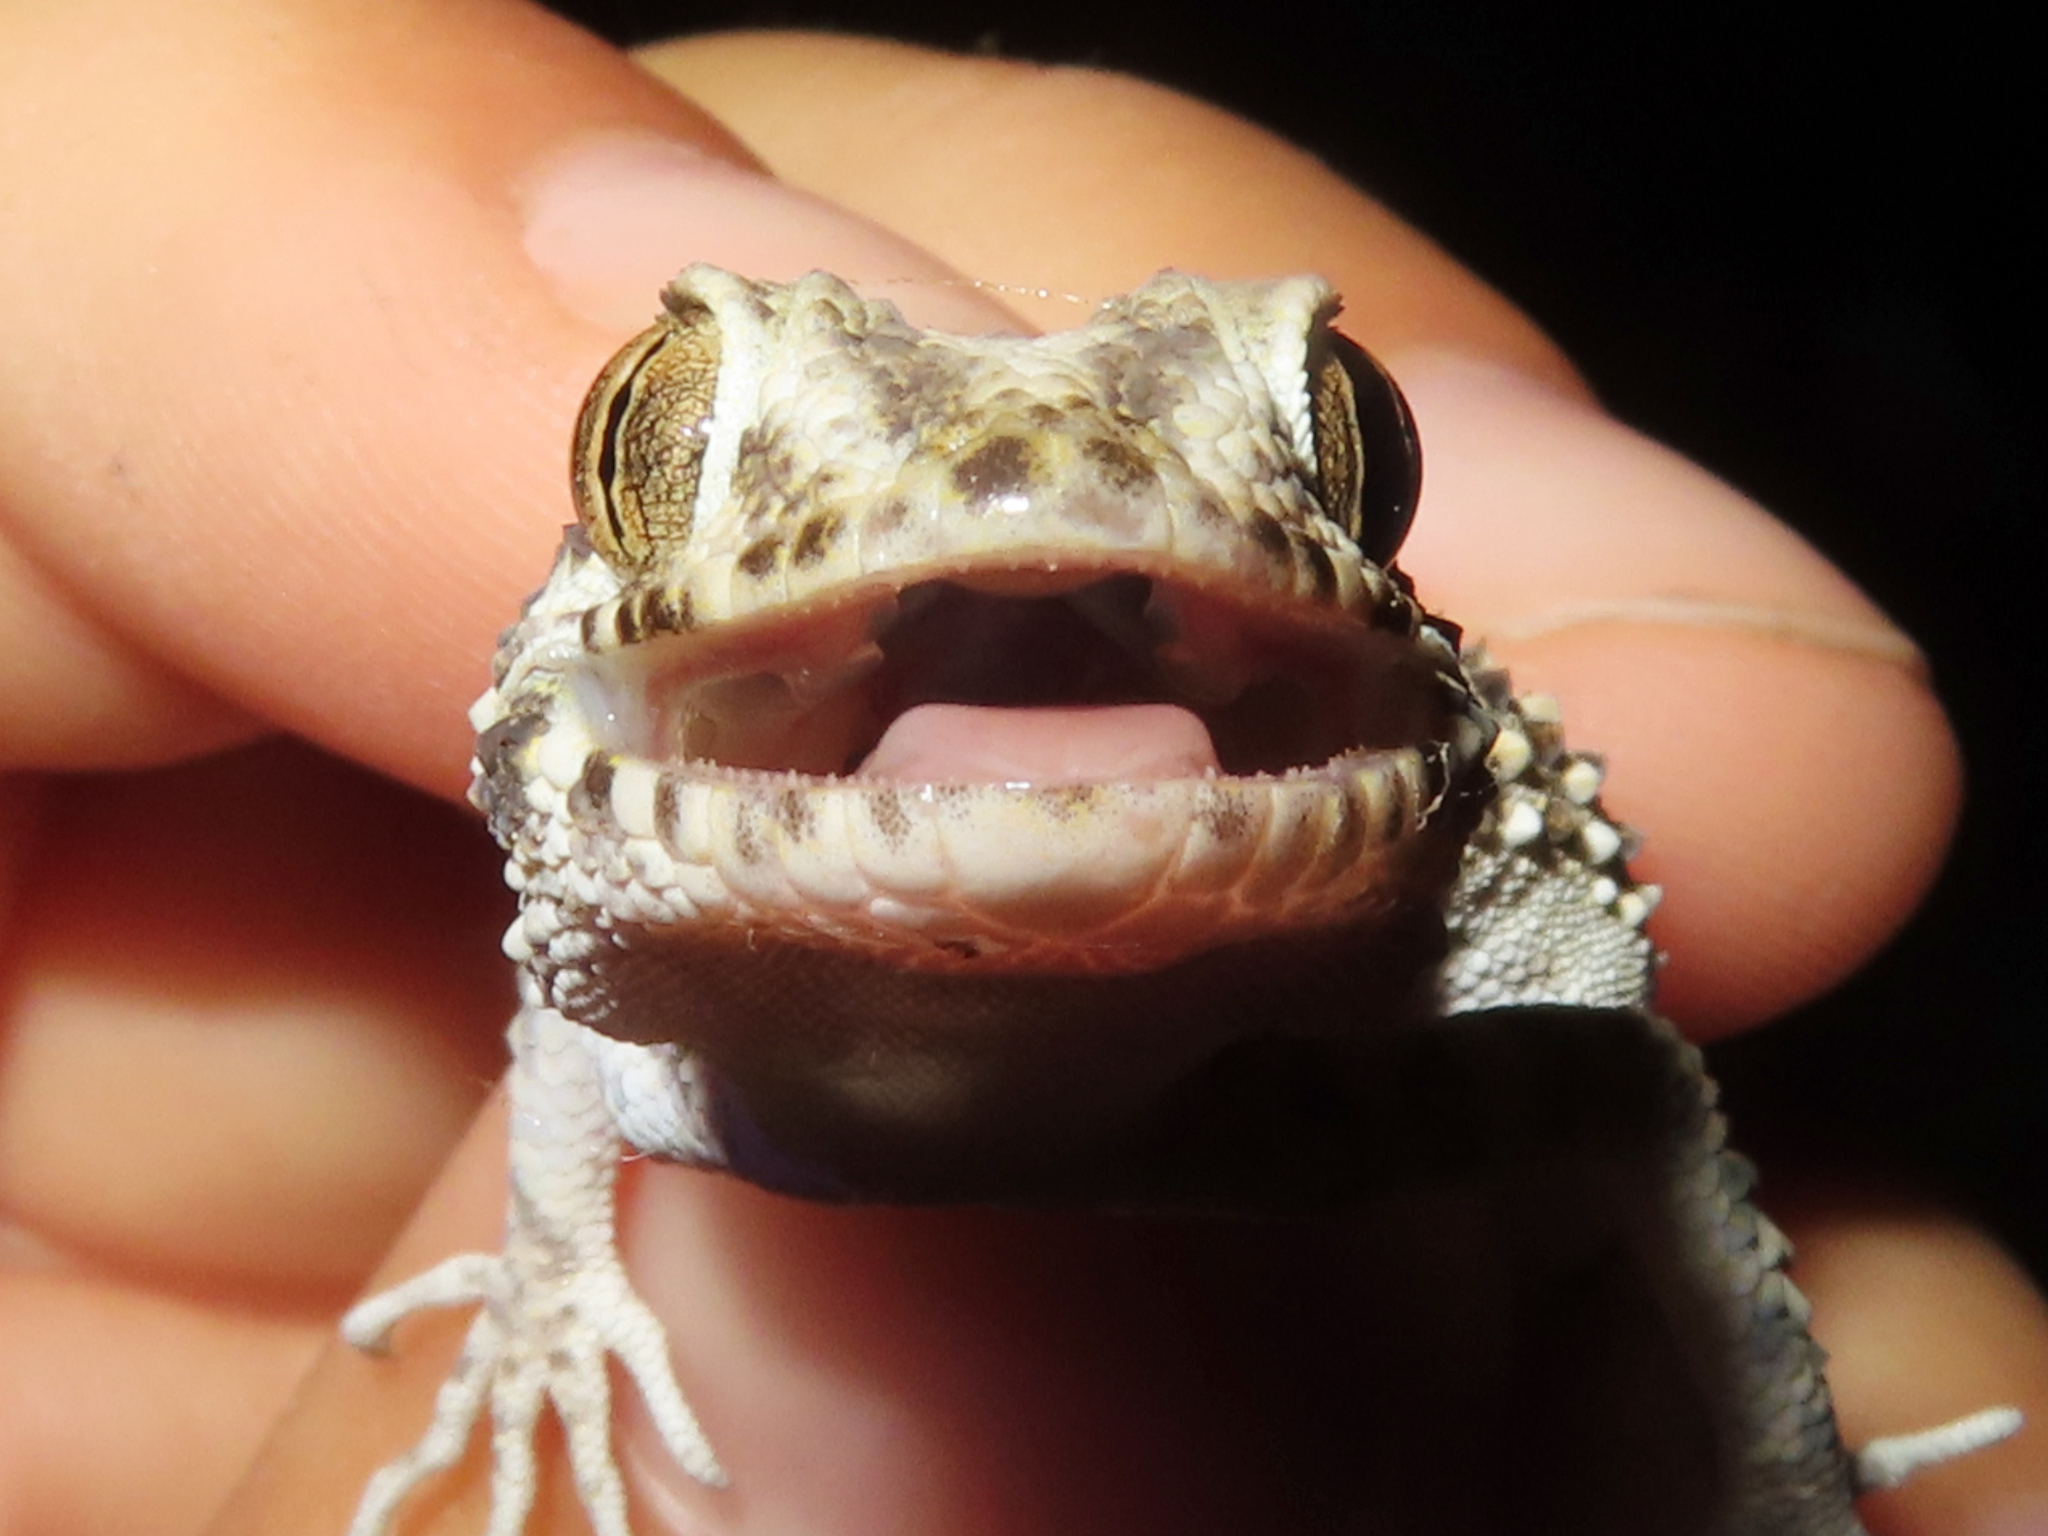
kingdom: Animalia
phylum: Chordata
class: Squamata
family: Gekkonidae
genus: Tenuidactylus
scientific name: Tenuidactylus caspius
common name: Caspian bent-toed gecko
